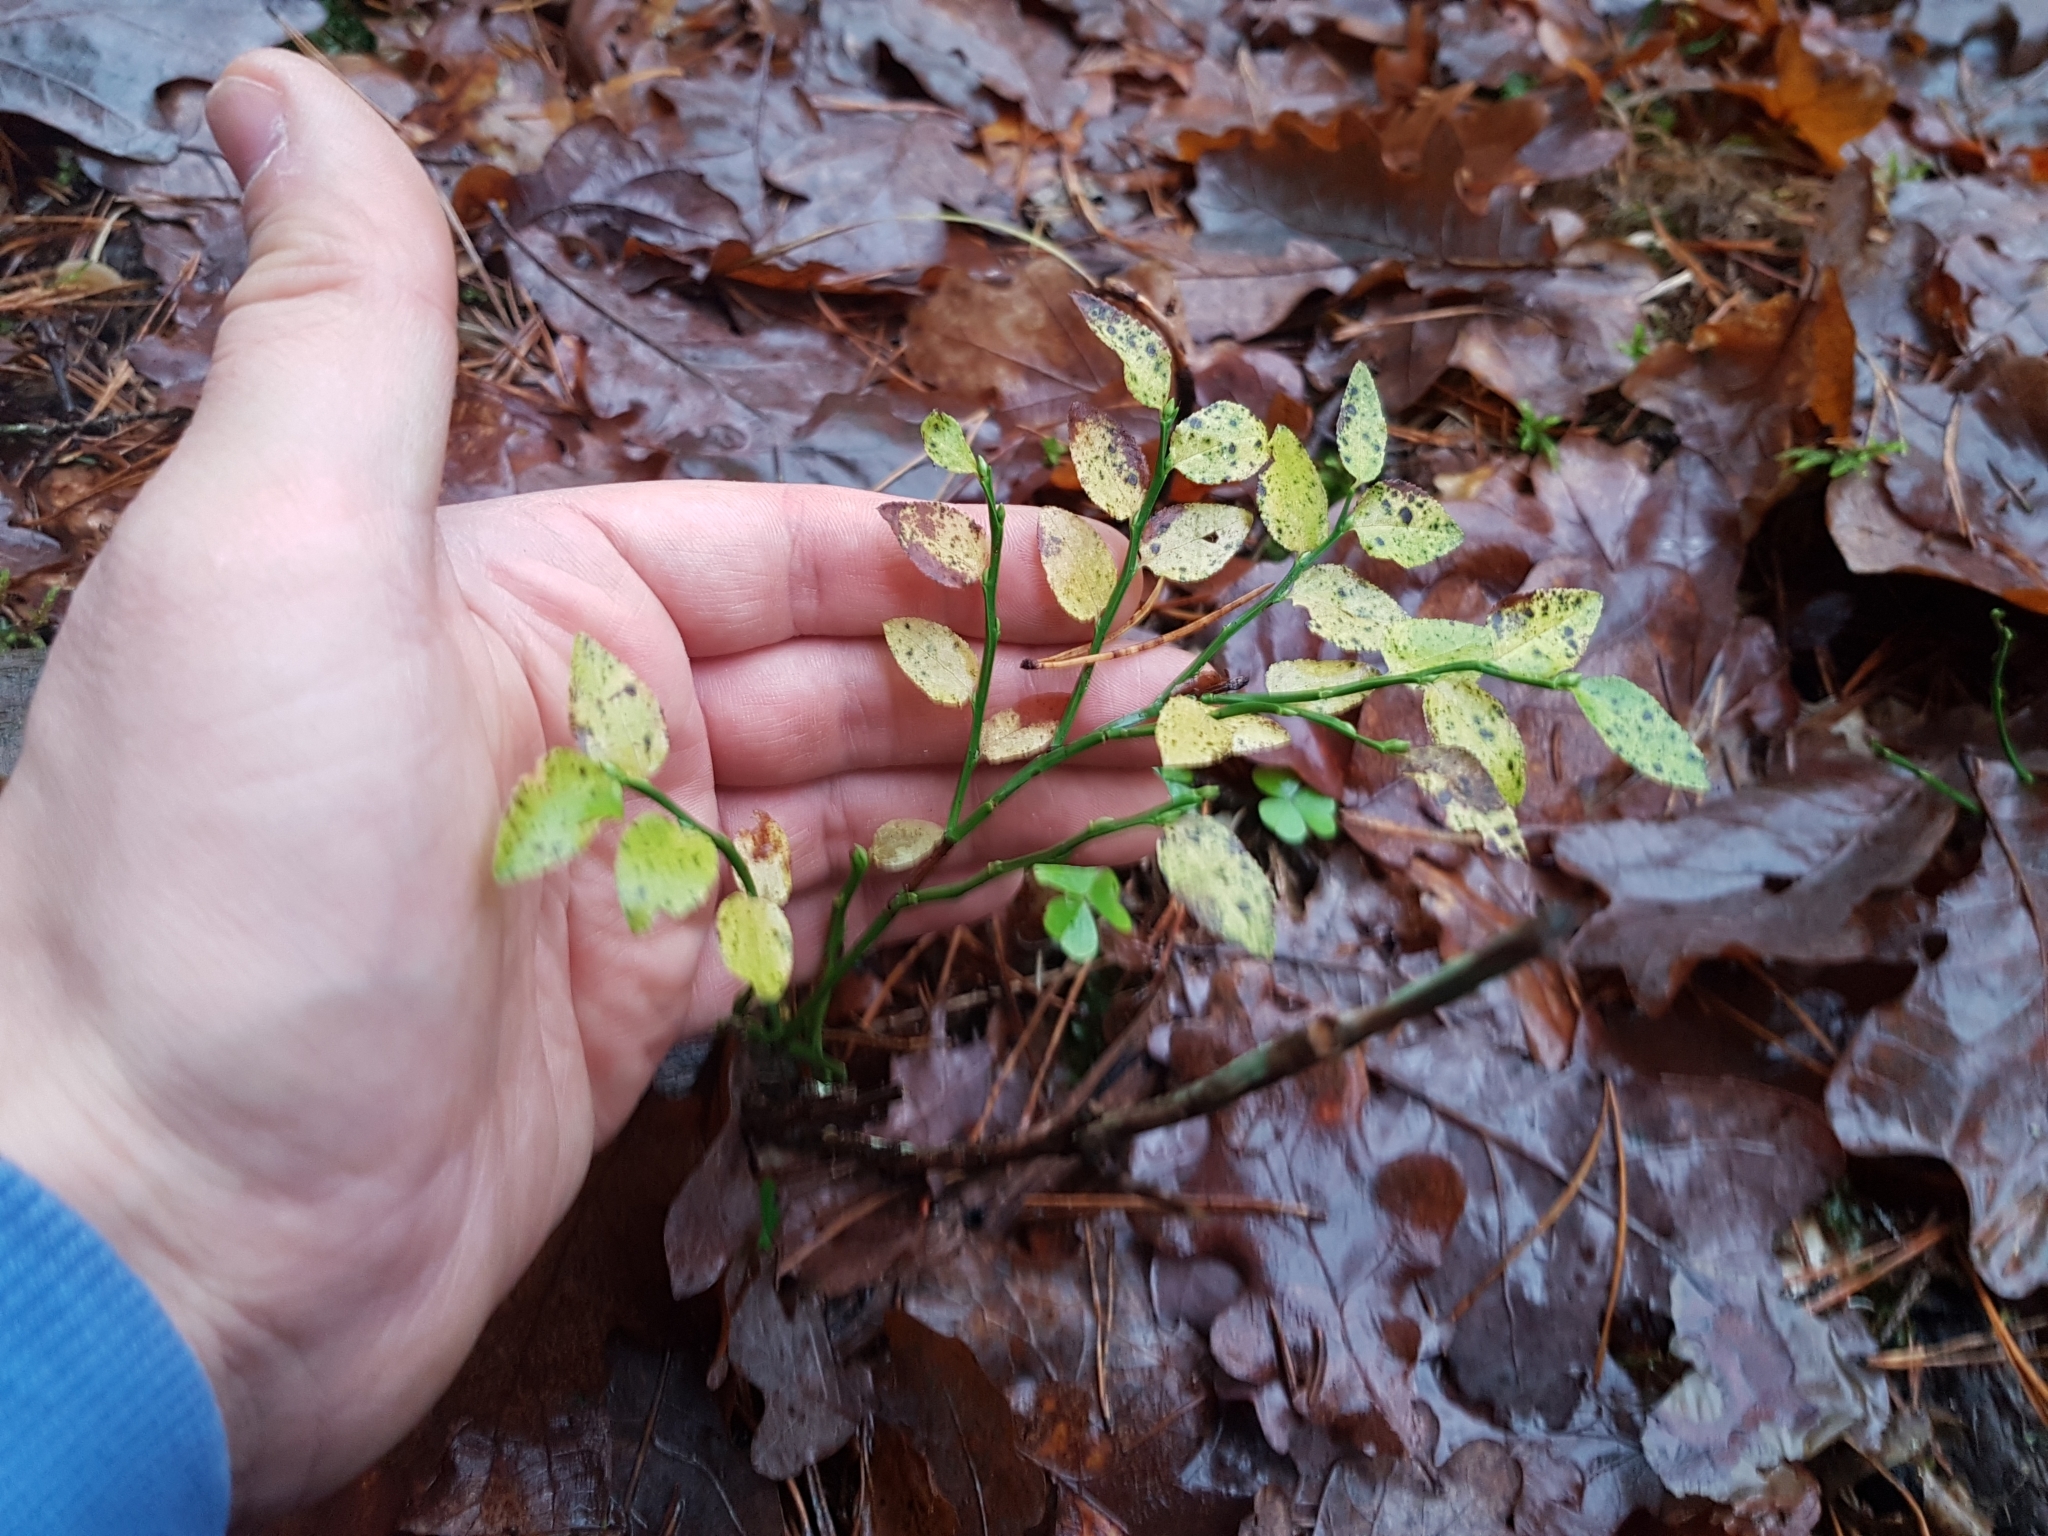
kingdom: Plantae
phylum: Tracheophyta
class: Magnoliopsida
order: Ericales
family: Ericaceae
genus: Vaccinium
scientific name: Vaccinium myrtillus
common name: Bilberry
